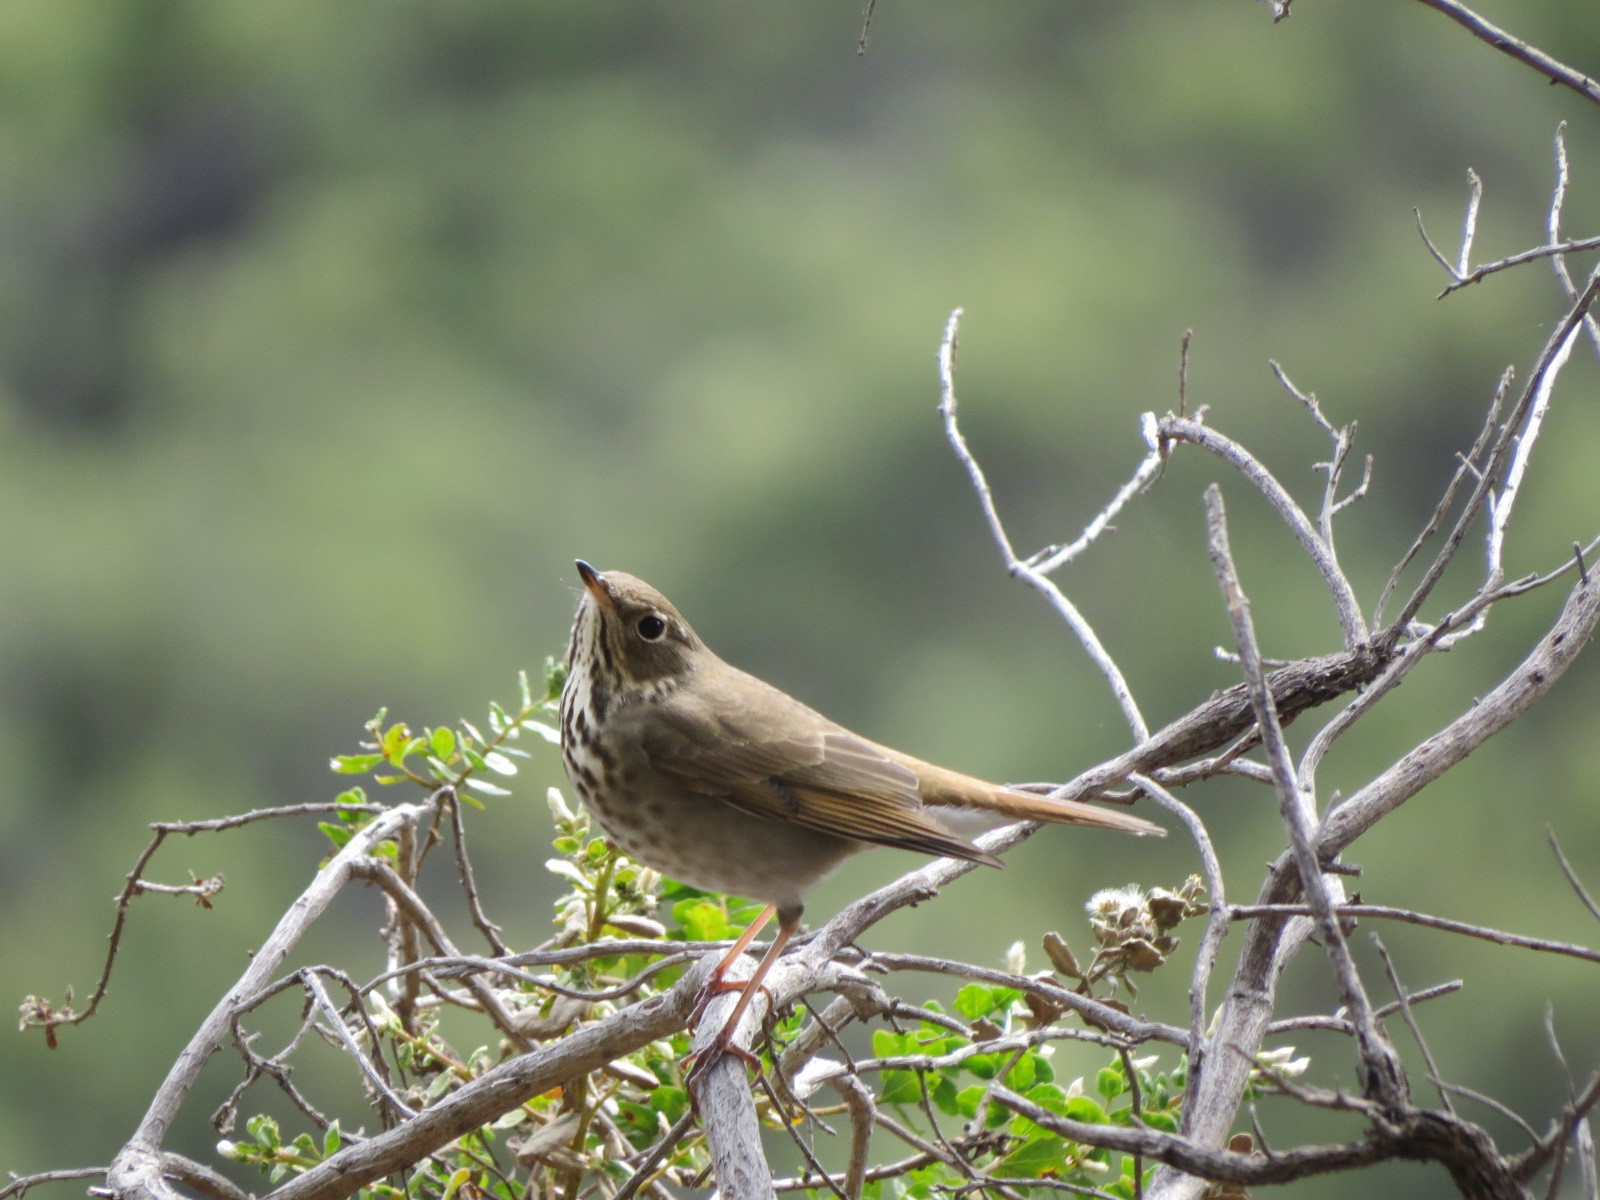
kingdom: Animalia
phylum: Chordata
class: Aves
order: Passeriformes
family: Turdidae
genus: Catharus
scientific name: Catharus guttatus
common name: Hermit thrush
